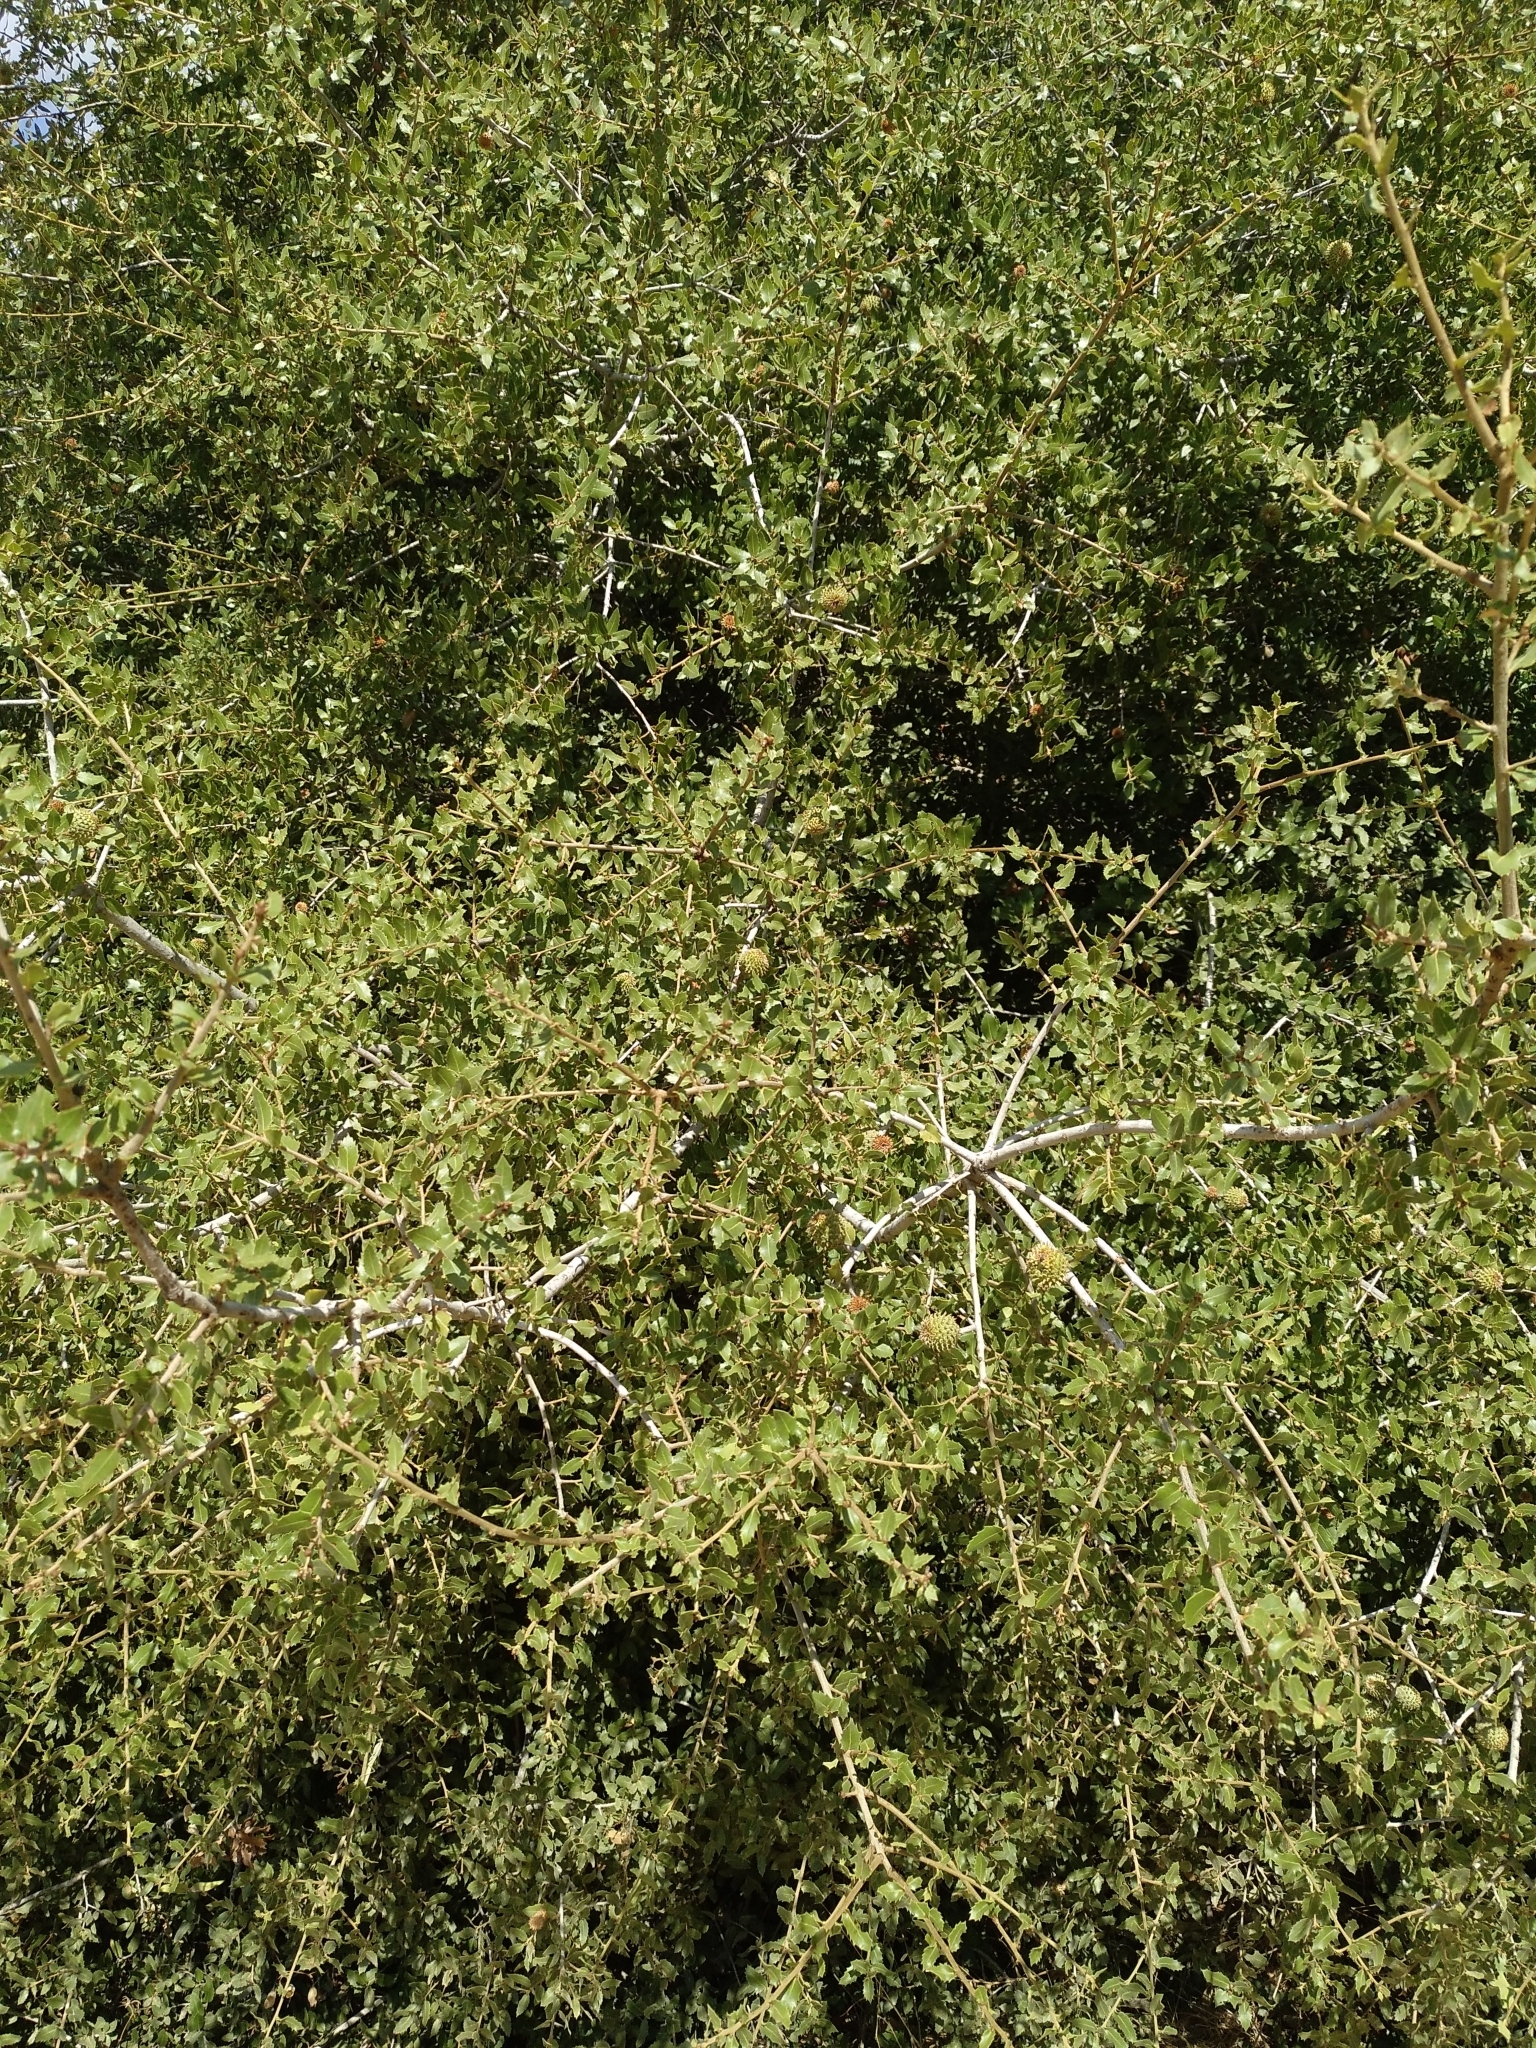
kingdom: Plantae
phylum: Tracheophyta
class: Magnoliopsida
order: Fagales
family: Fagaceae
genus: Quercus
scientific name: Quercus coccifera
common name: Kermes oak
